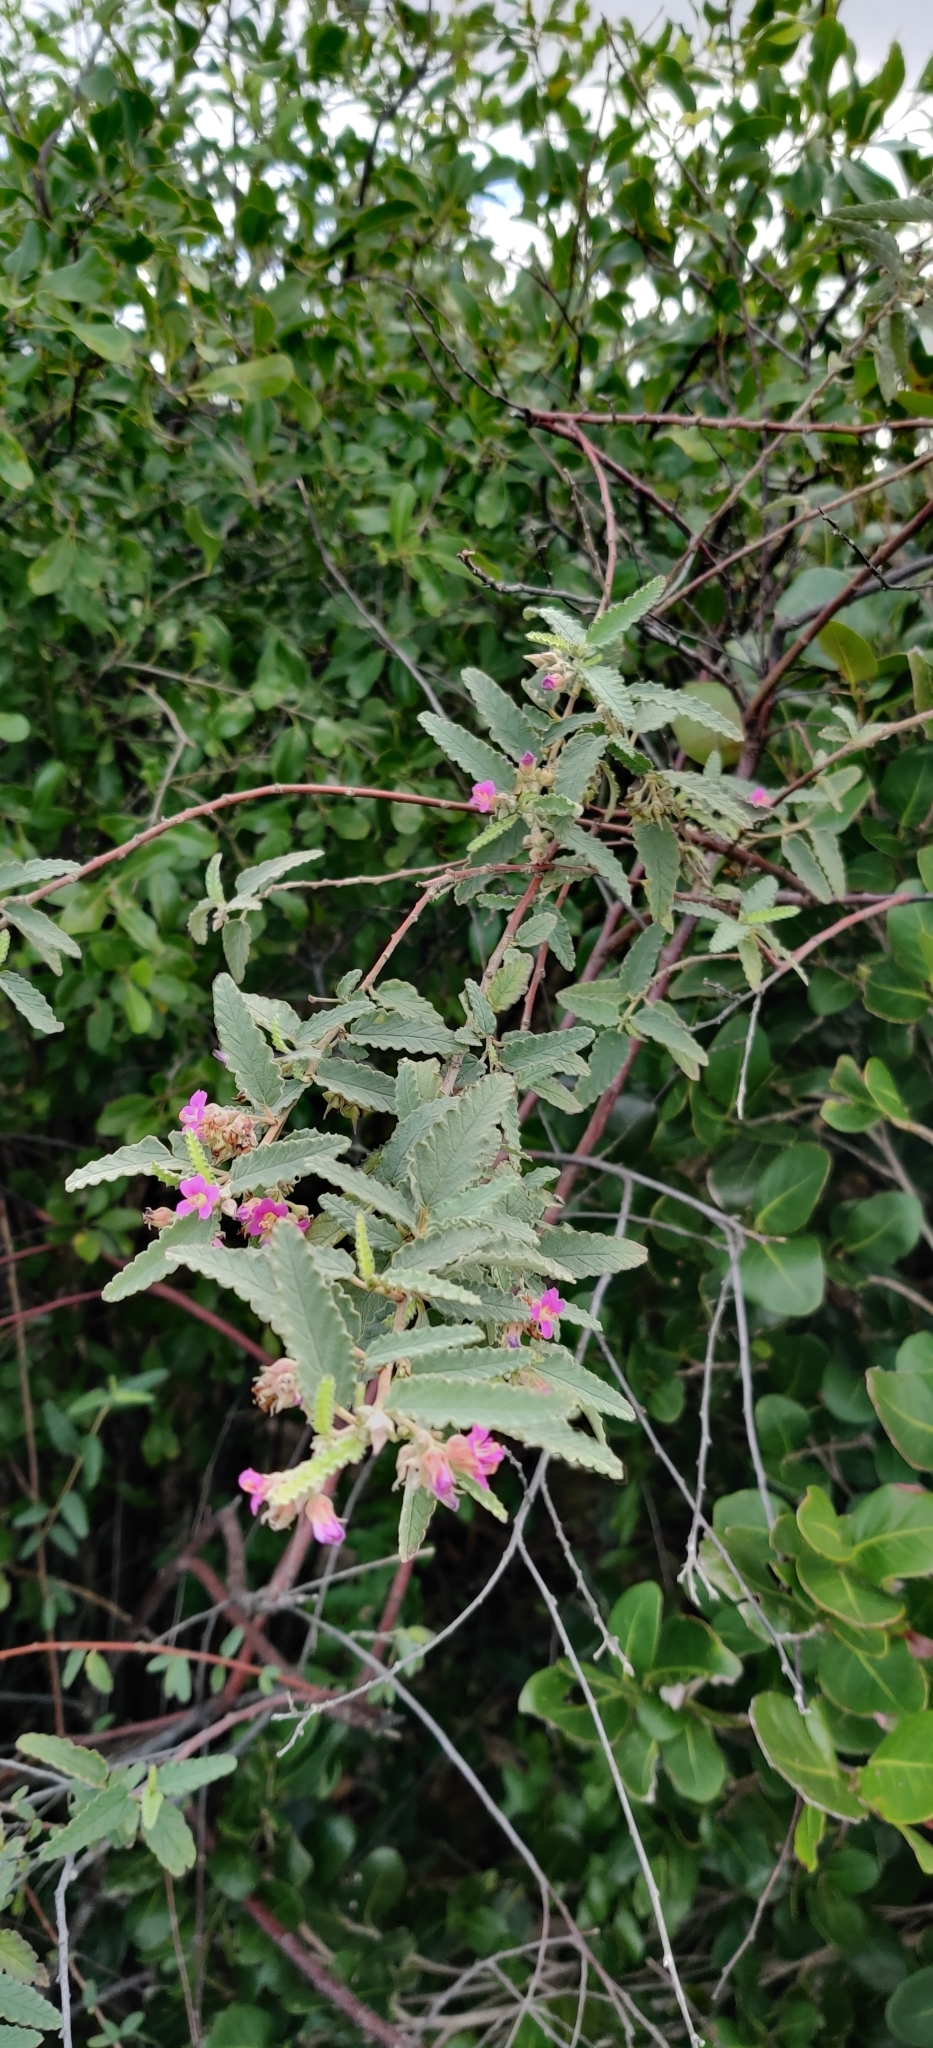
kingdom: Plantae
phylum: Tracheophyta
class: Magnoliopsida
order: Malvales
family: Malvaceae
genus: Melochia
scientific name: Melochia tomentosa
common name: Black torch
